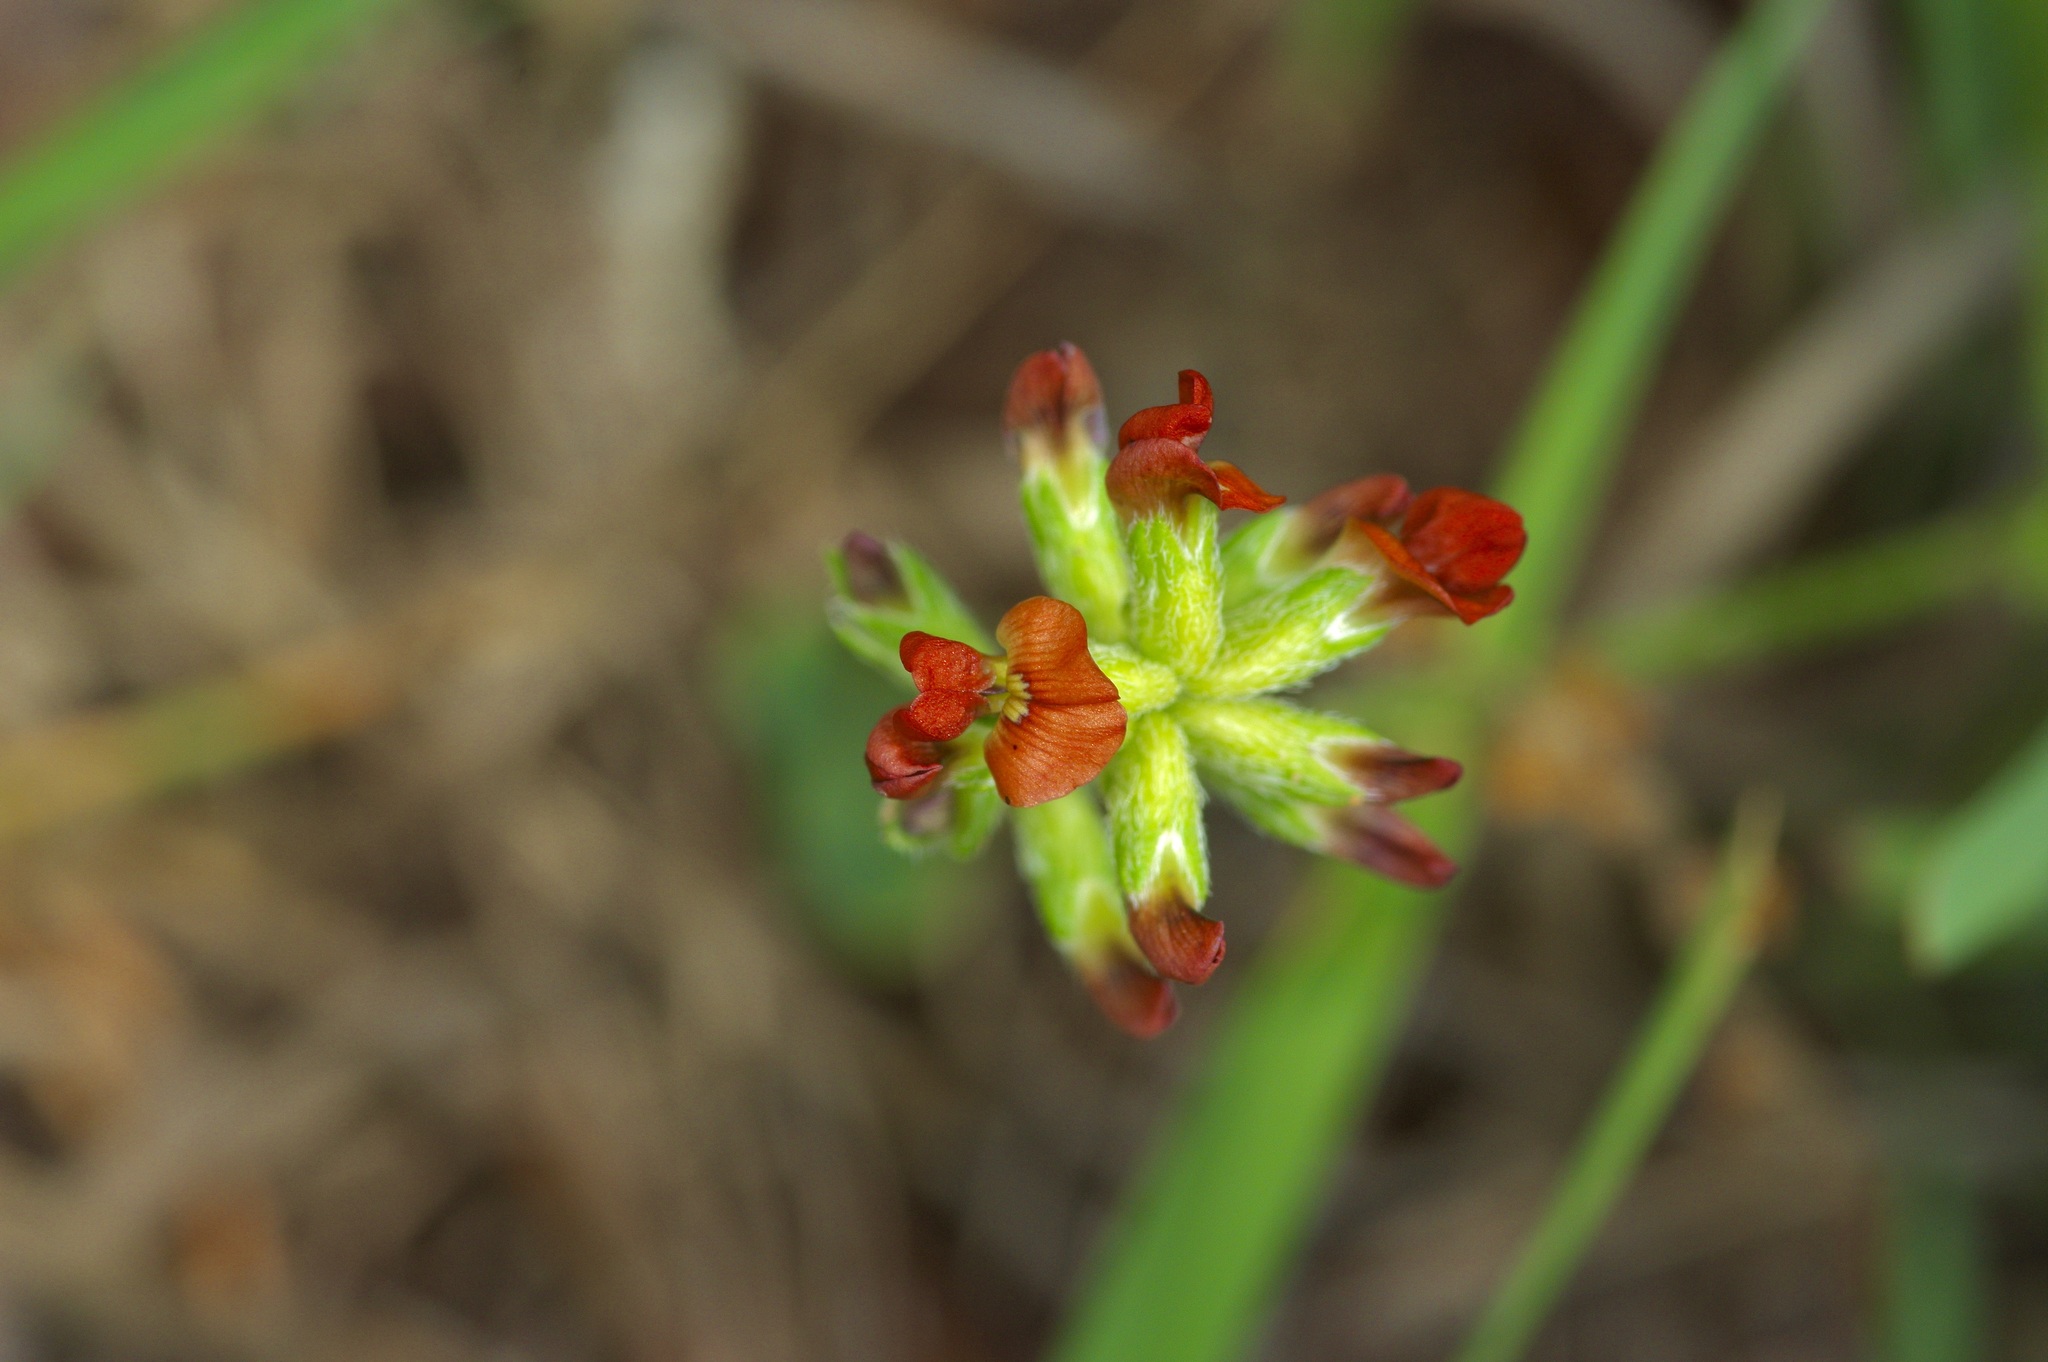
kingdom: Plantae
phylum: Tracheophyta
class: Magnoliopsida
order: Fabales
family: Fabaceae
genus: Pediomelum
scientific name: Pediomelum rhombifolium
